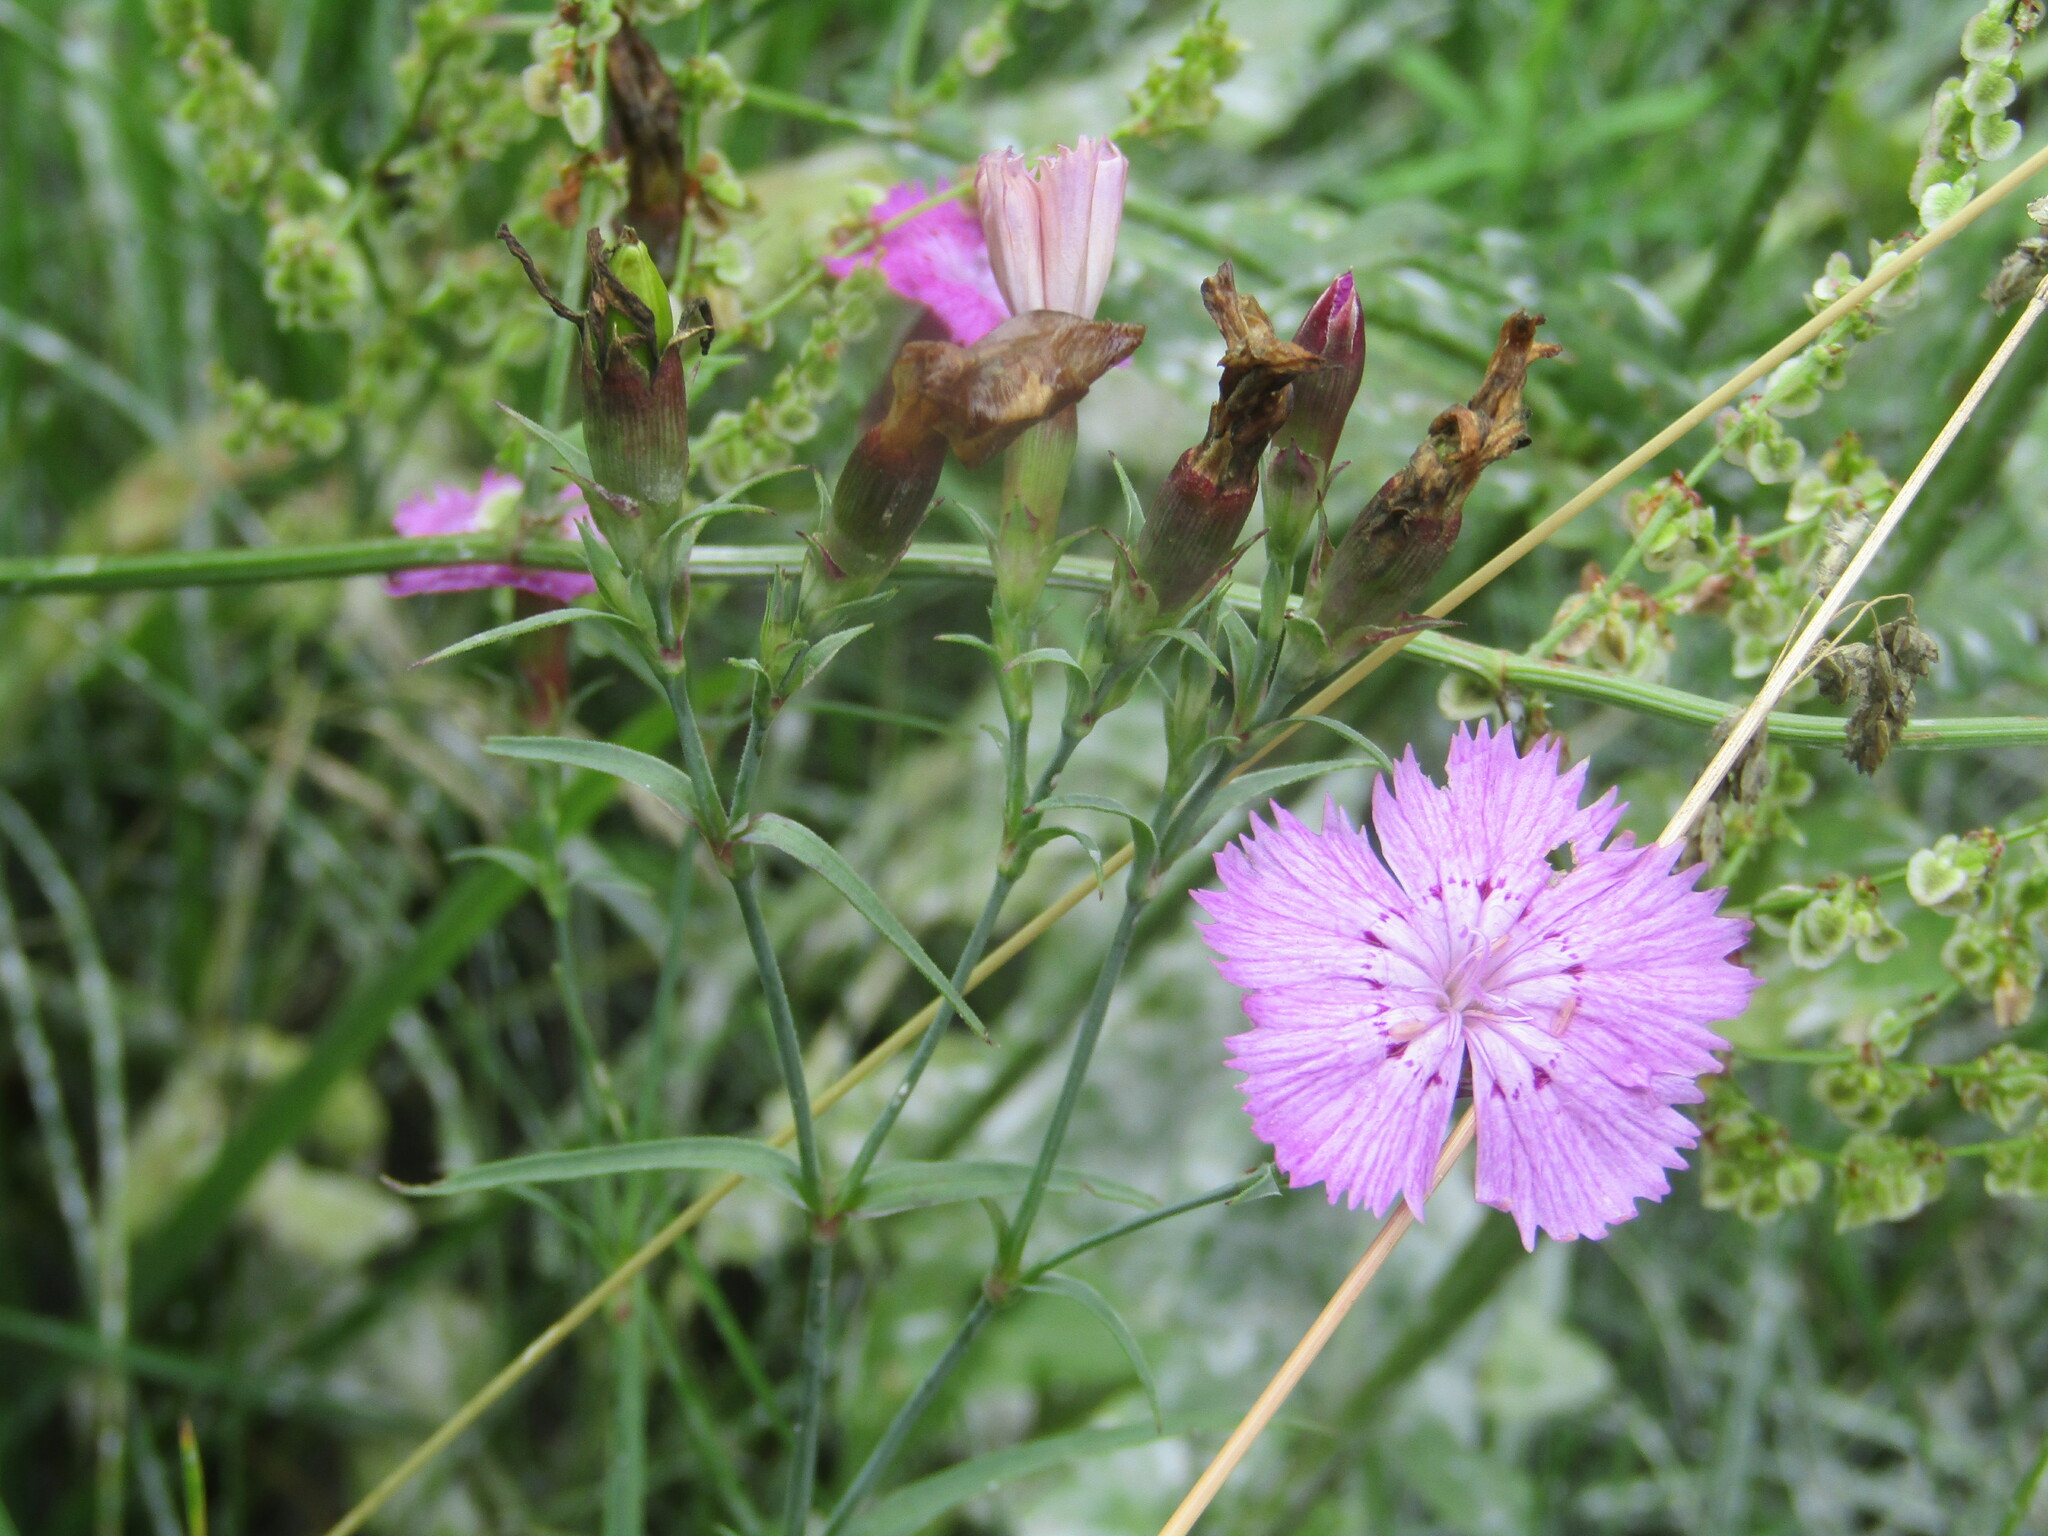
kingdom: Plantae
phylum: Tracheophyta
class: Magnoliopsida
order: Caryophyllales
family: Caryophyllaceae
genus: Dianthus
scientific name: Dianthus chinensis
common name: Rainbow pink
